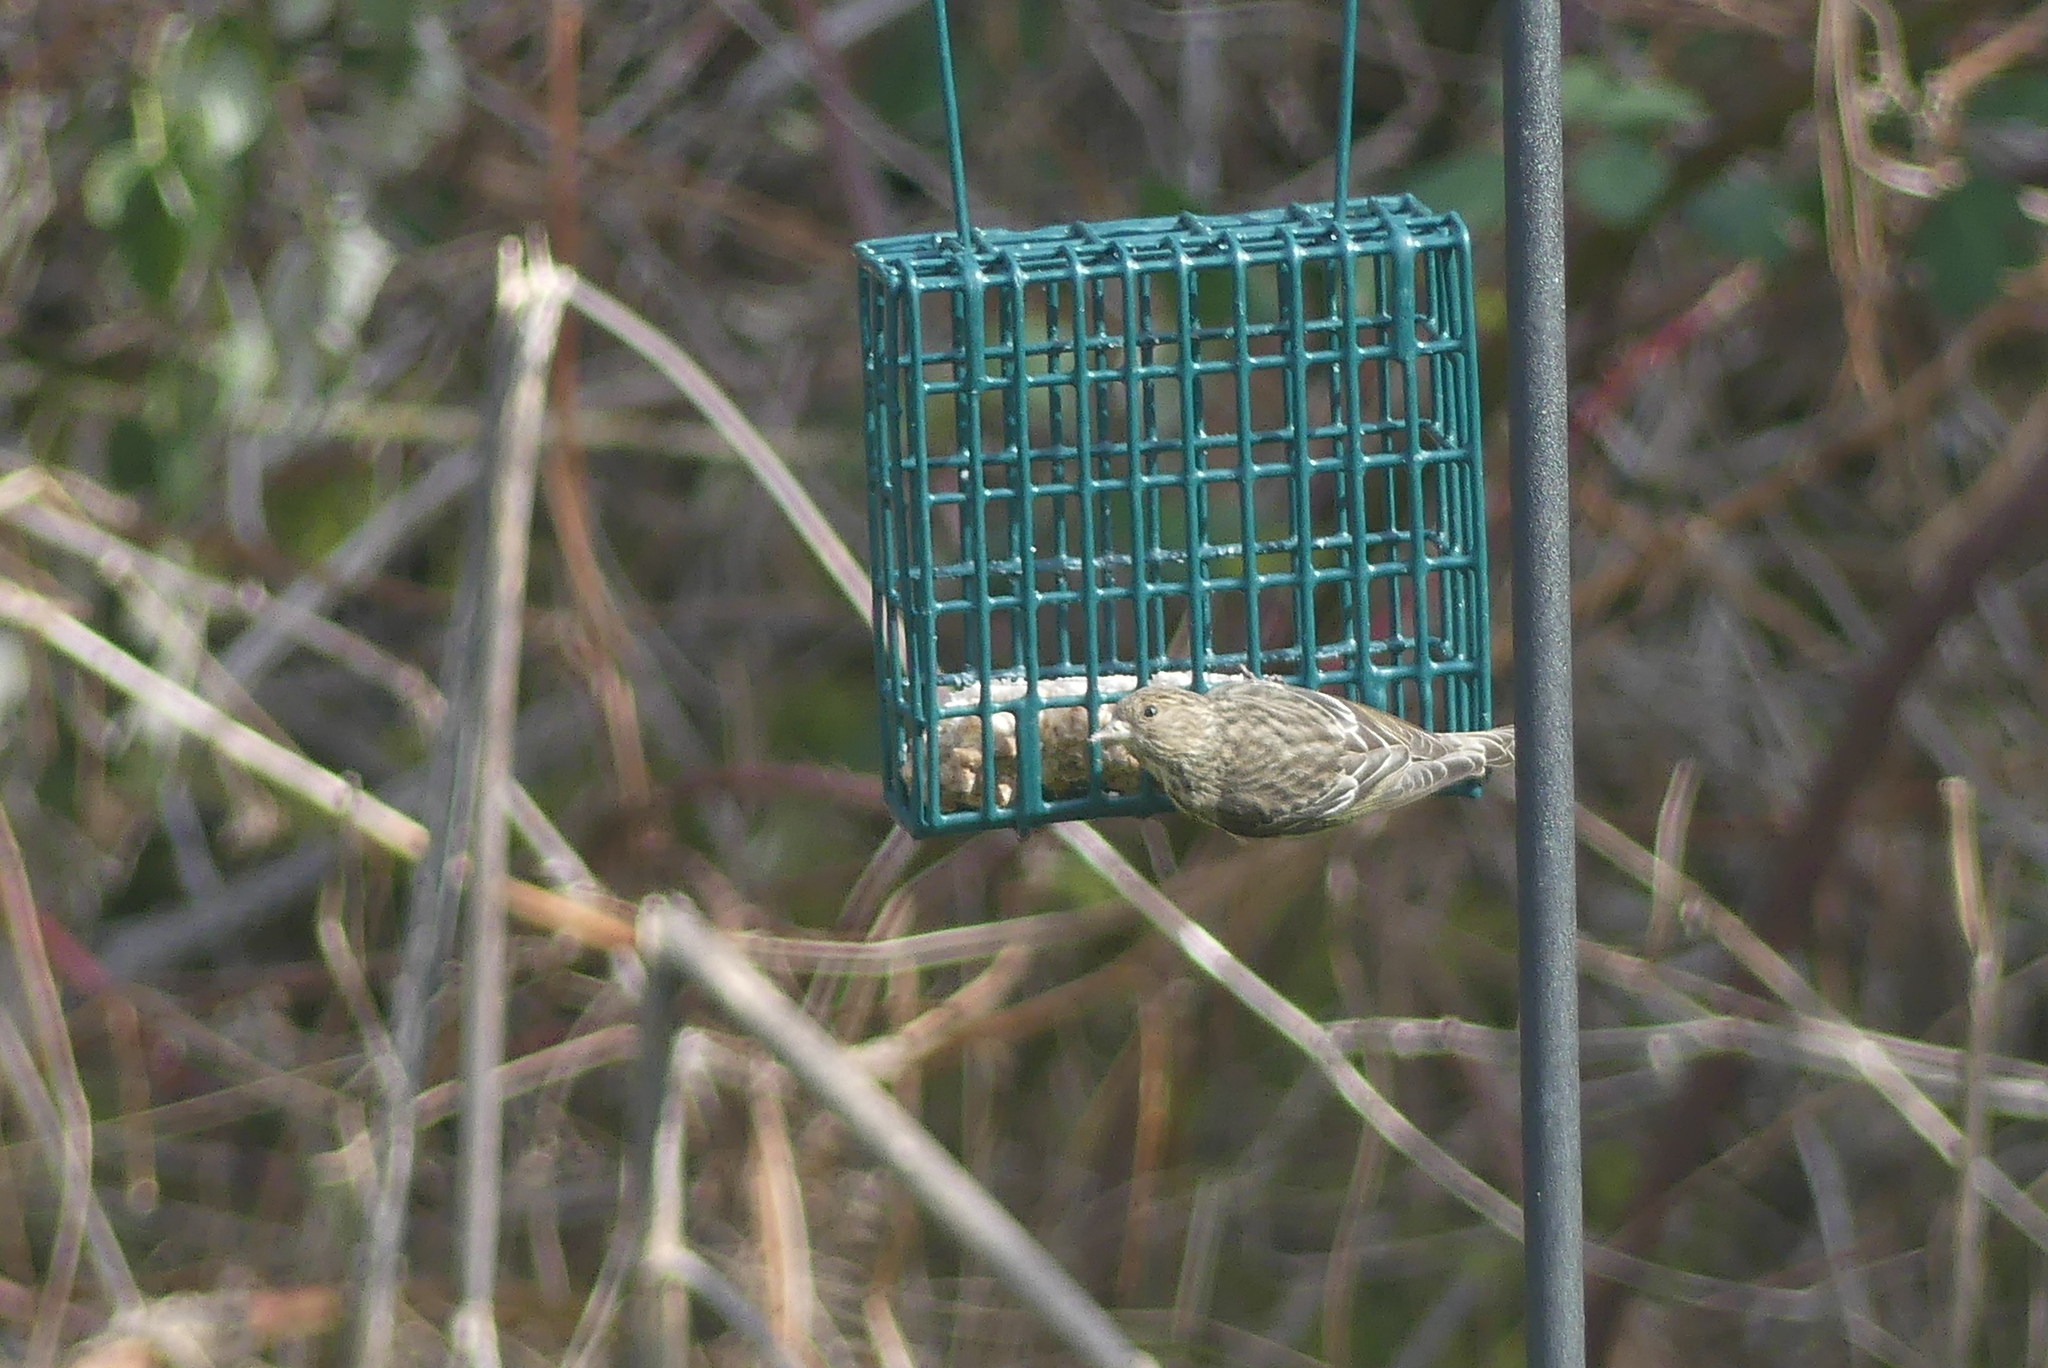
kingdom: Animalia
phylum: Chordata
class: Aves
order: Passeriformes
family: Fringillidae
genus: Spinus
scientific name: Spinus pinus
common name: Pine siskin
